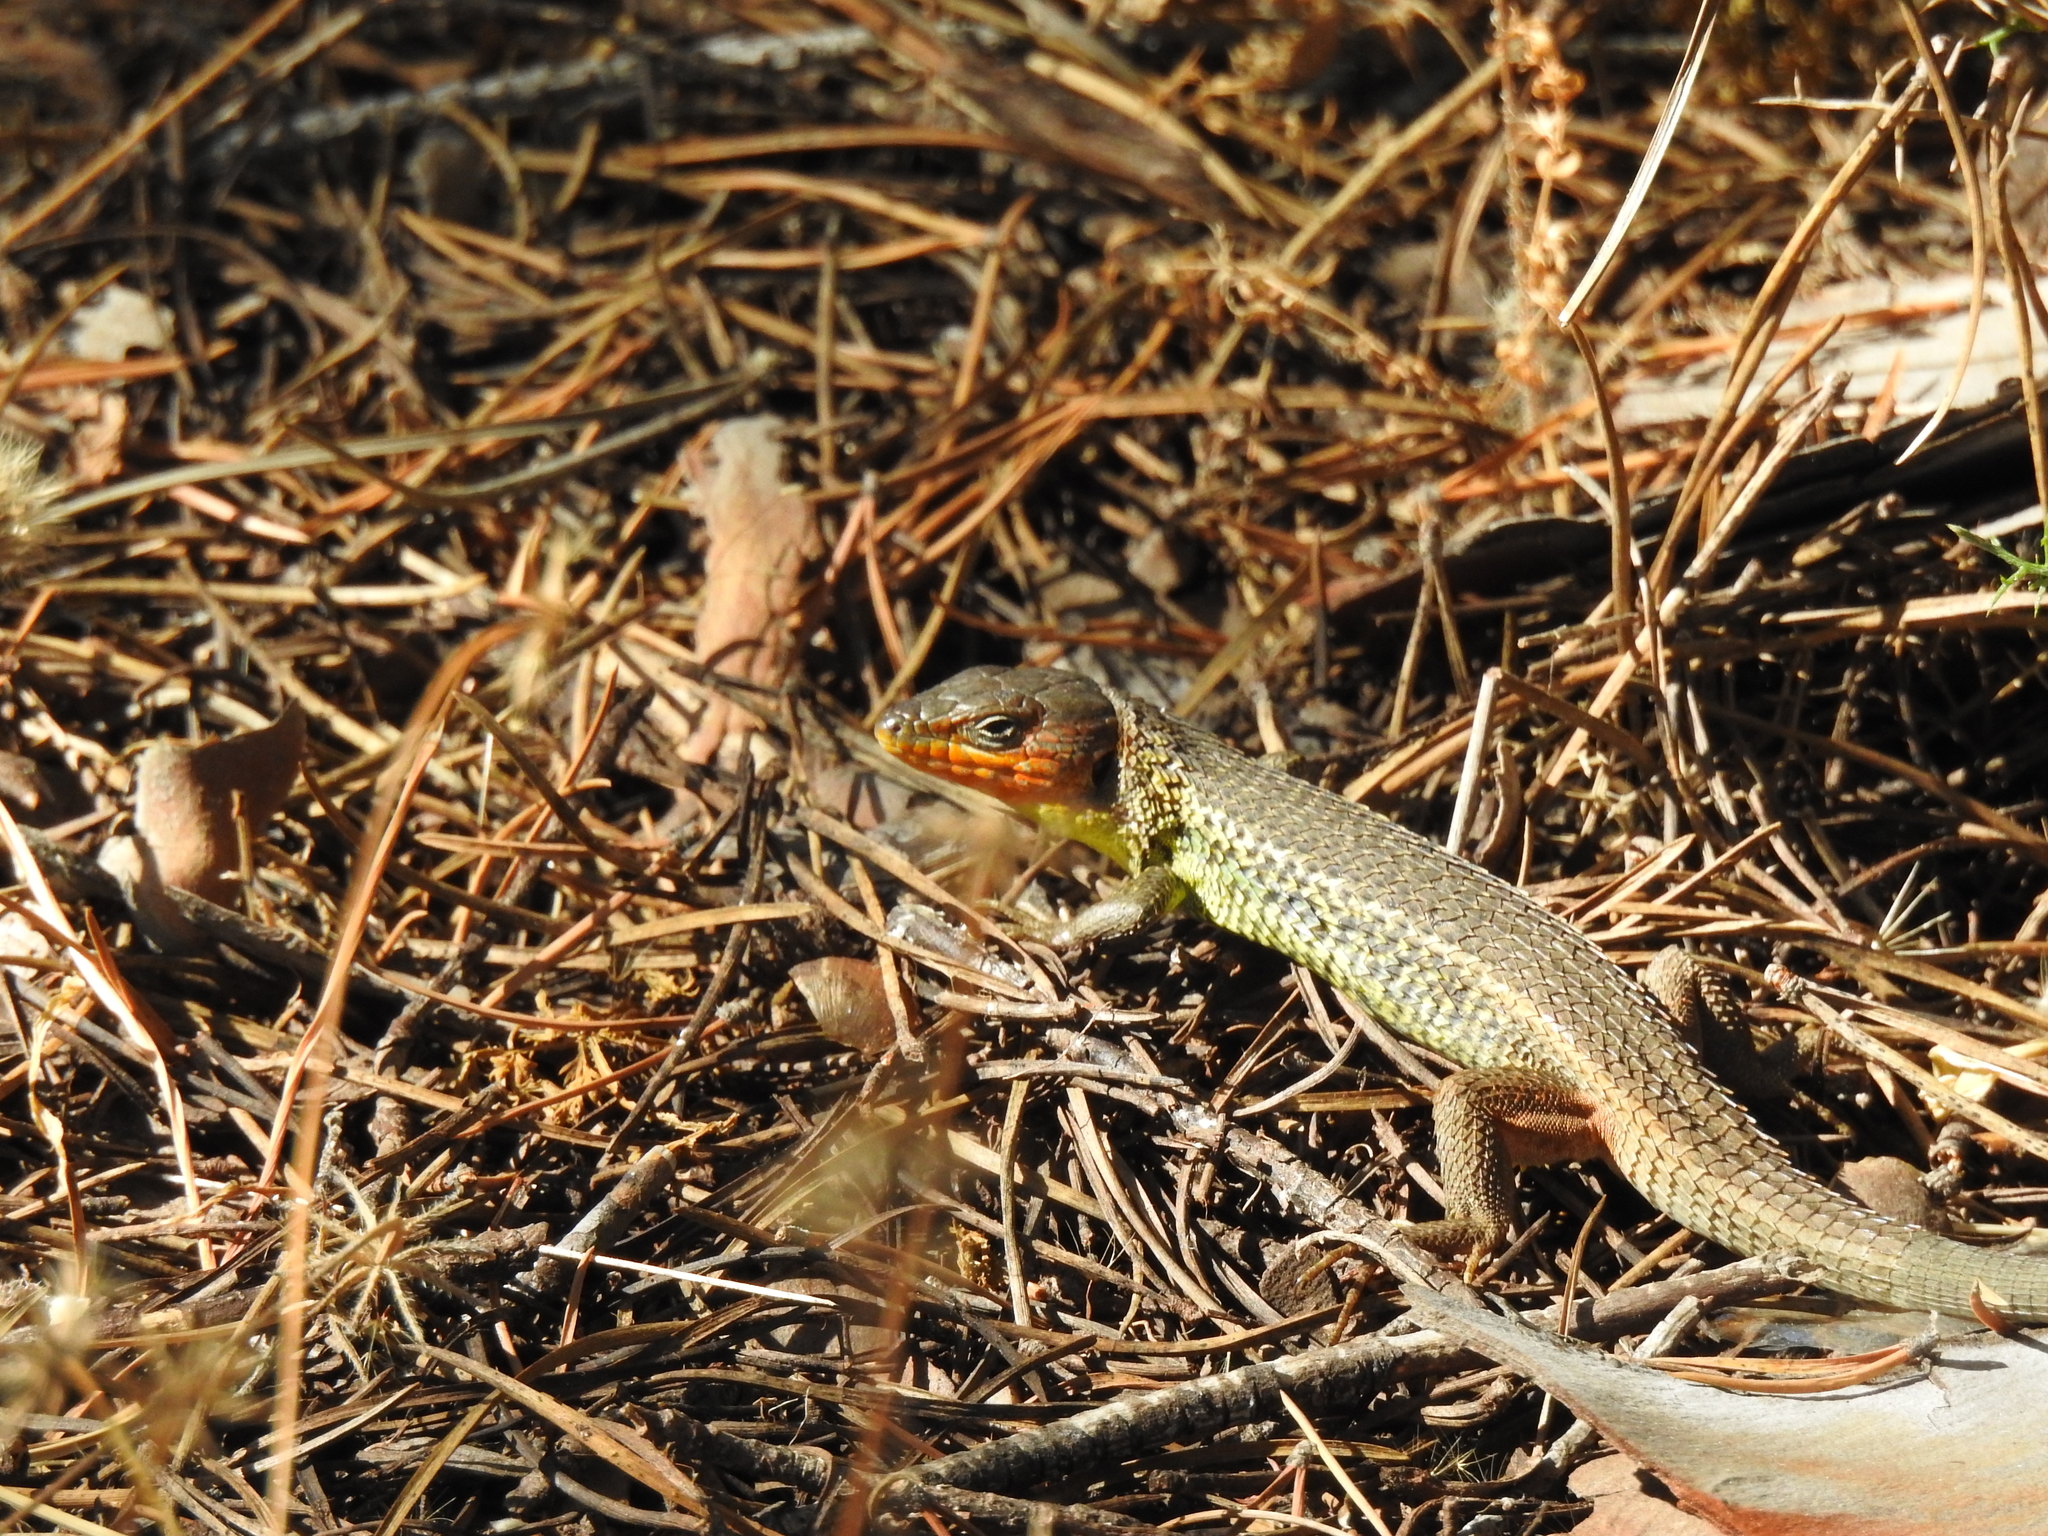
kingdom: Animalia
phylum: Chordata
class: Squamata
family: Lacertidae
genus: Psammodromus
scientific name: Psammodromus algirus
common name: Algerian psammodromus
